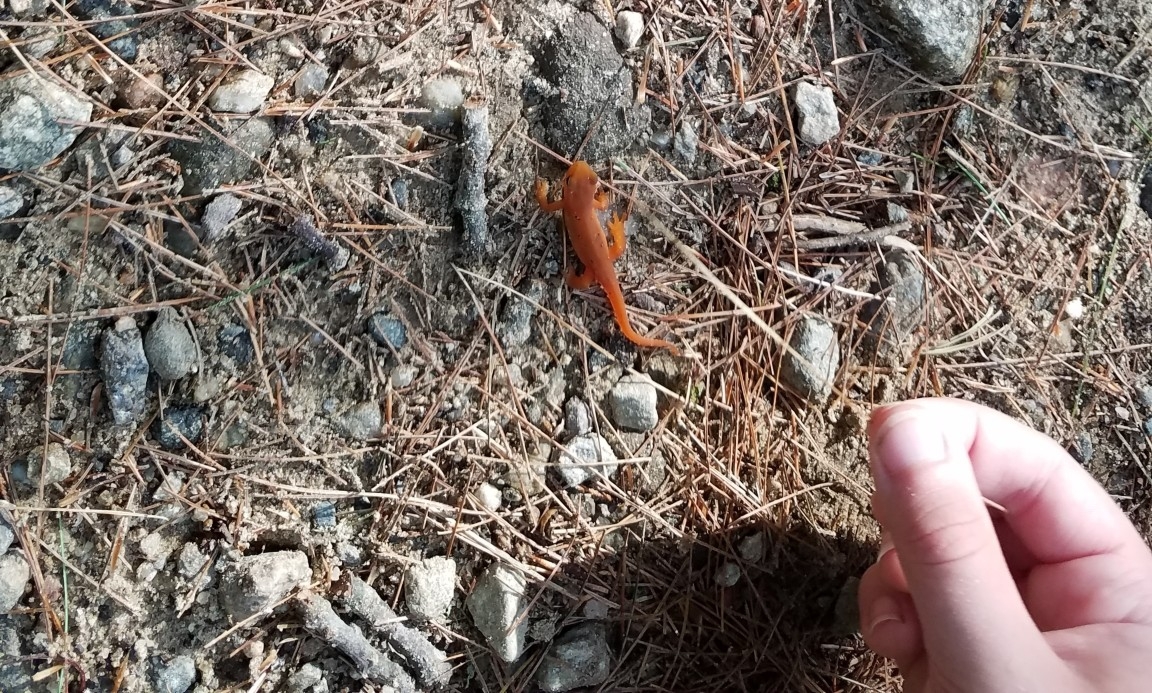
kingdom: Animalia
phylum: Chordata
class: Amphibia
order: Caudata
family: Salamandridae
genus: Notophthalmus
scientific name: Notophthalmus viridescens
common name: Eastern newt
